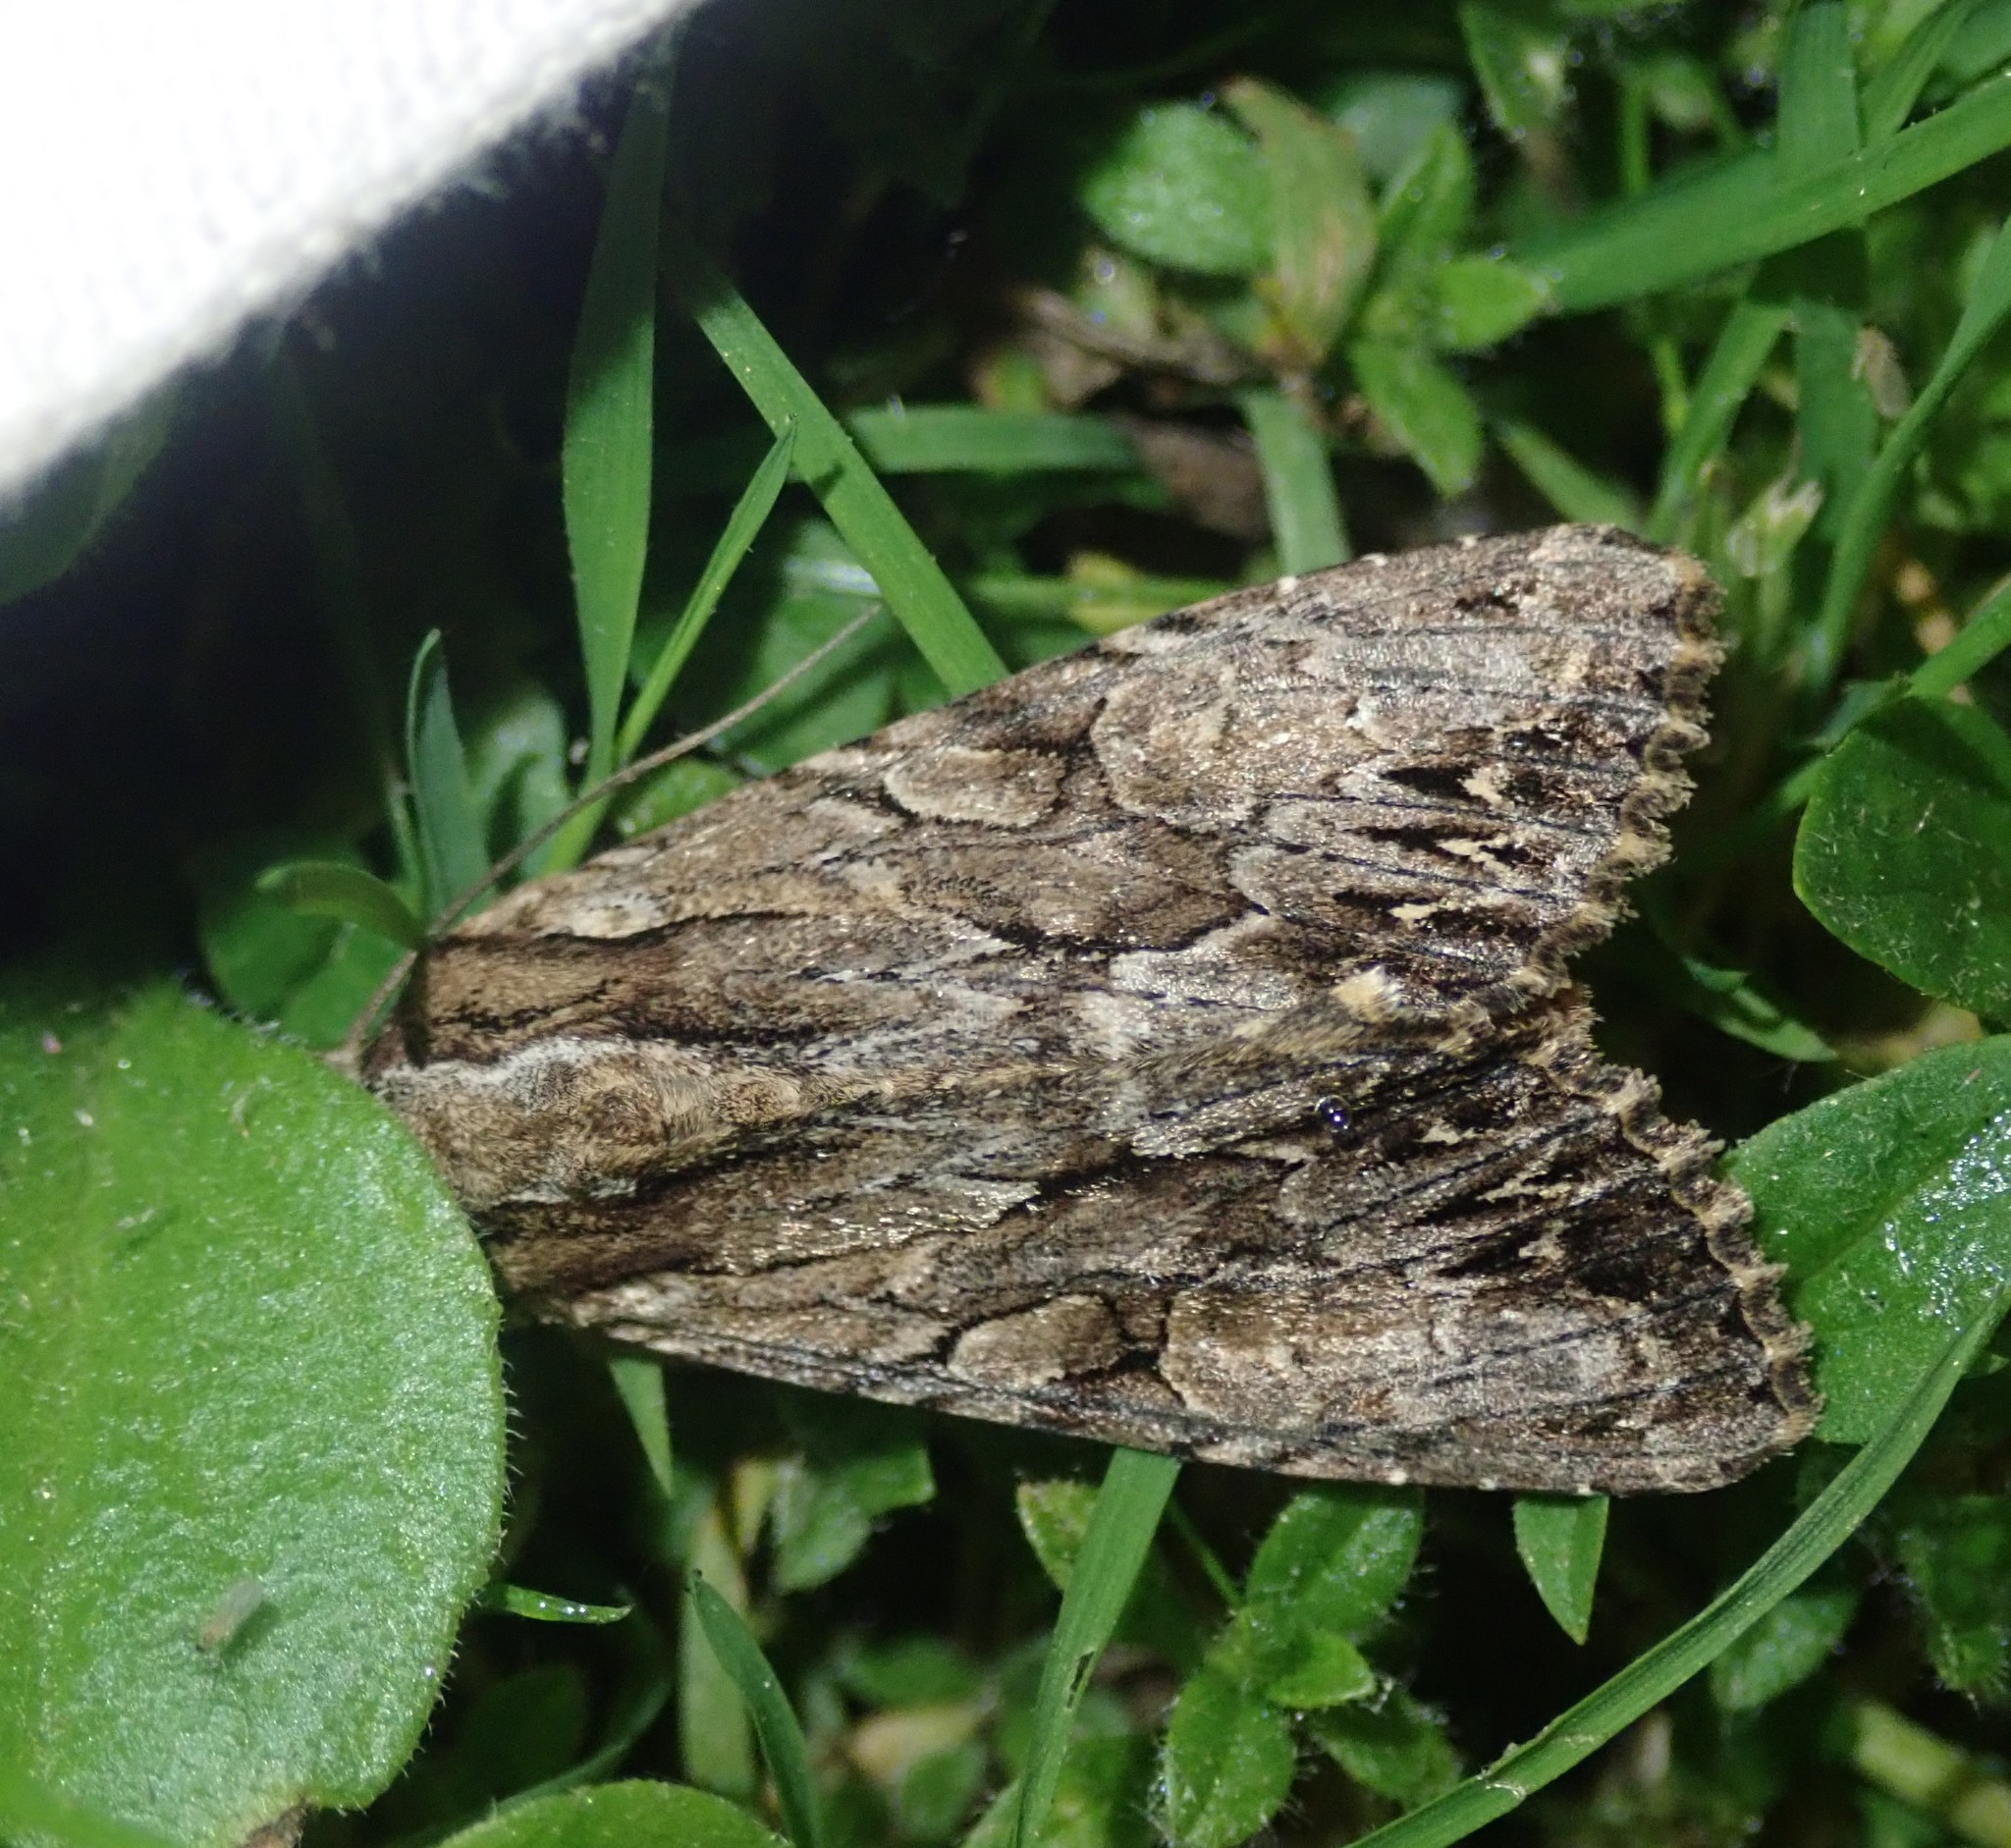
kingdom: Animalia
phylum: Arthropoda
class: Insecta
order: Lepidoptera
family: Noctuidae
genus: Apamea
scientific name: Apamea monoglypha
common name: Dark arches
